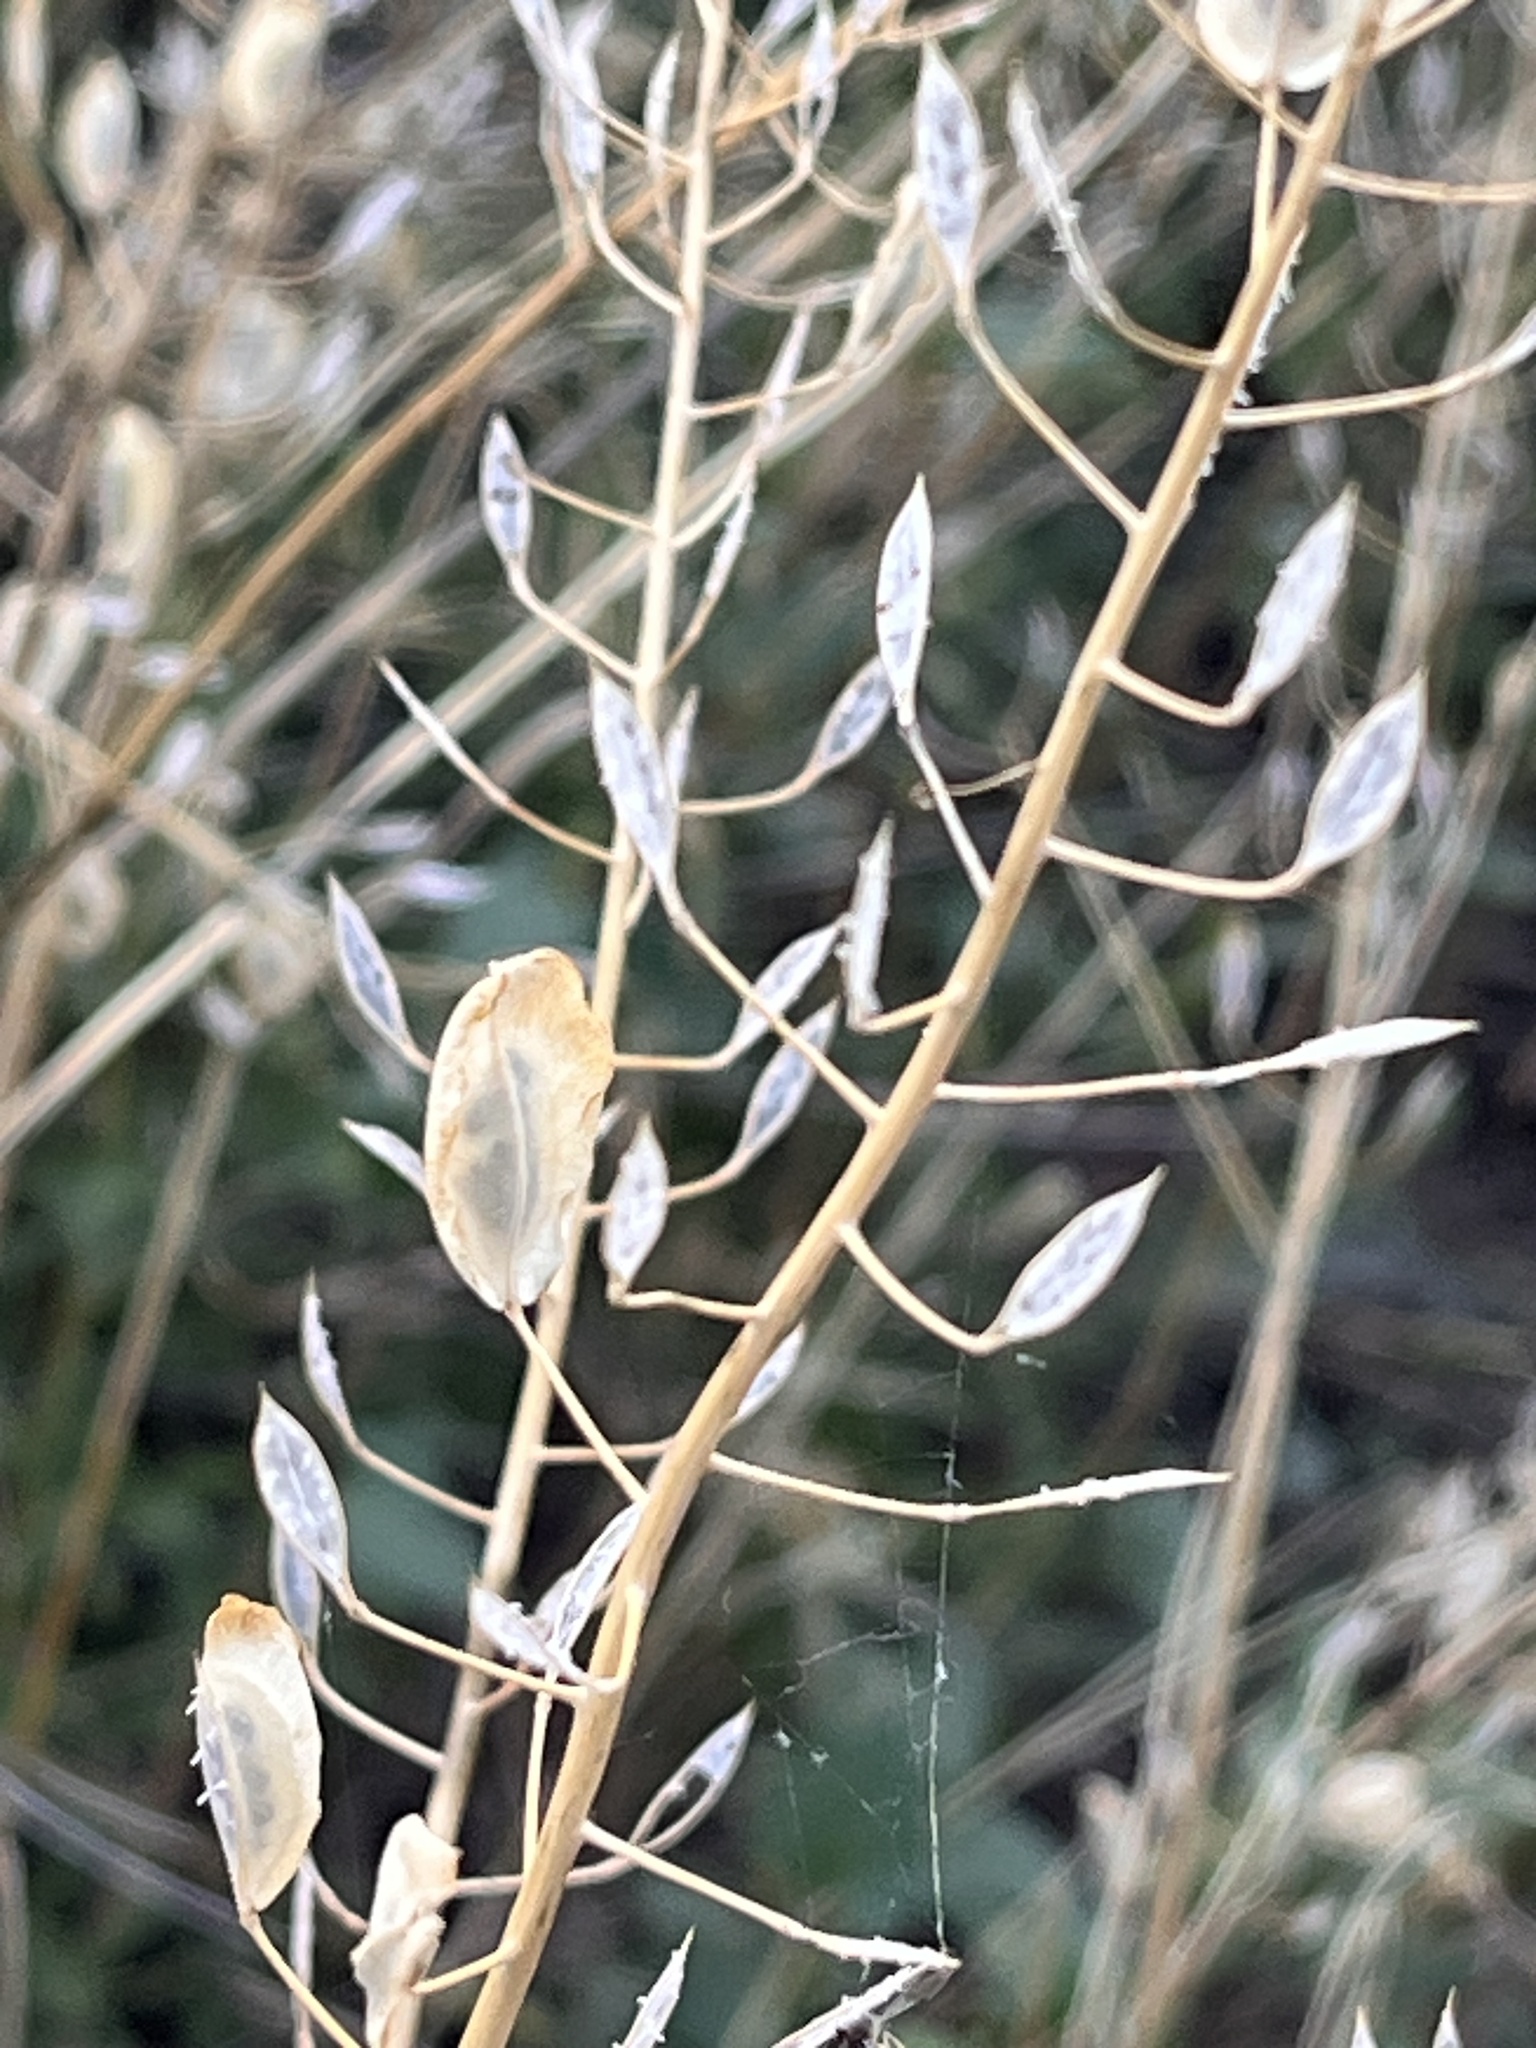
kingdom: Plantae
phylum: Tracheophyta
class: Magnoliopsida
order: Brassicales
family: Brassicaceae
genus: Thlaspi
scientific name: Thlaspi arvense
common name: Field pennycress
